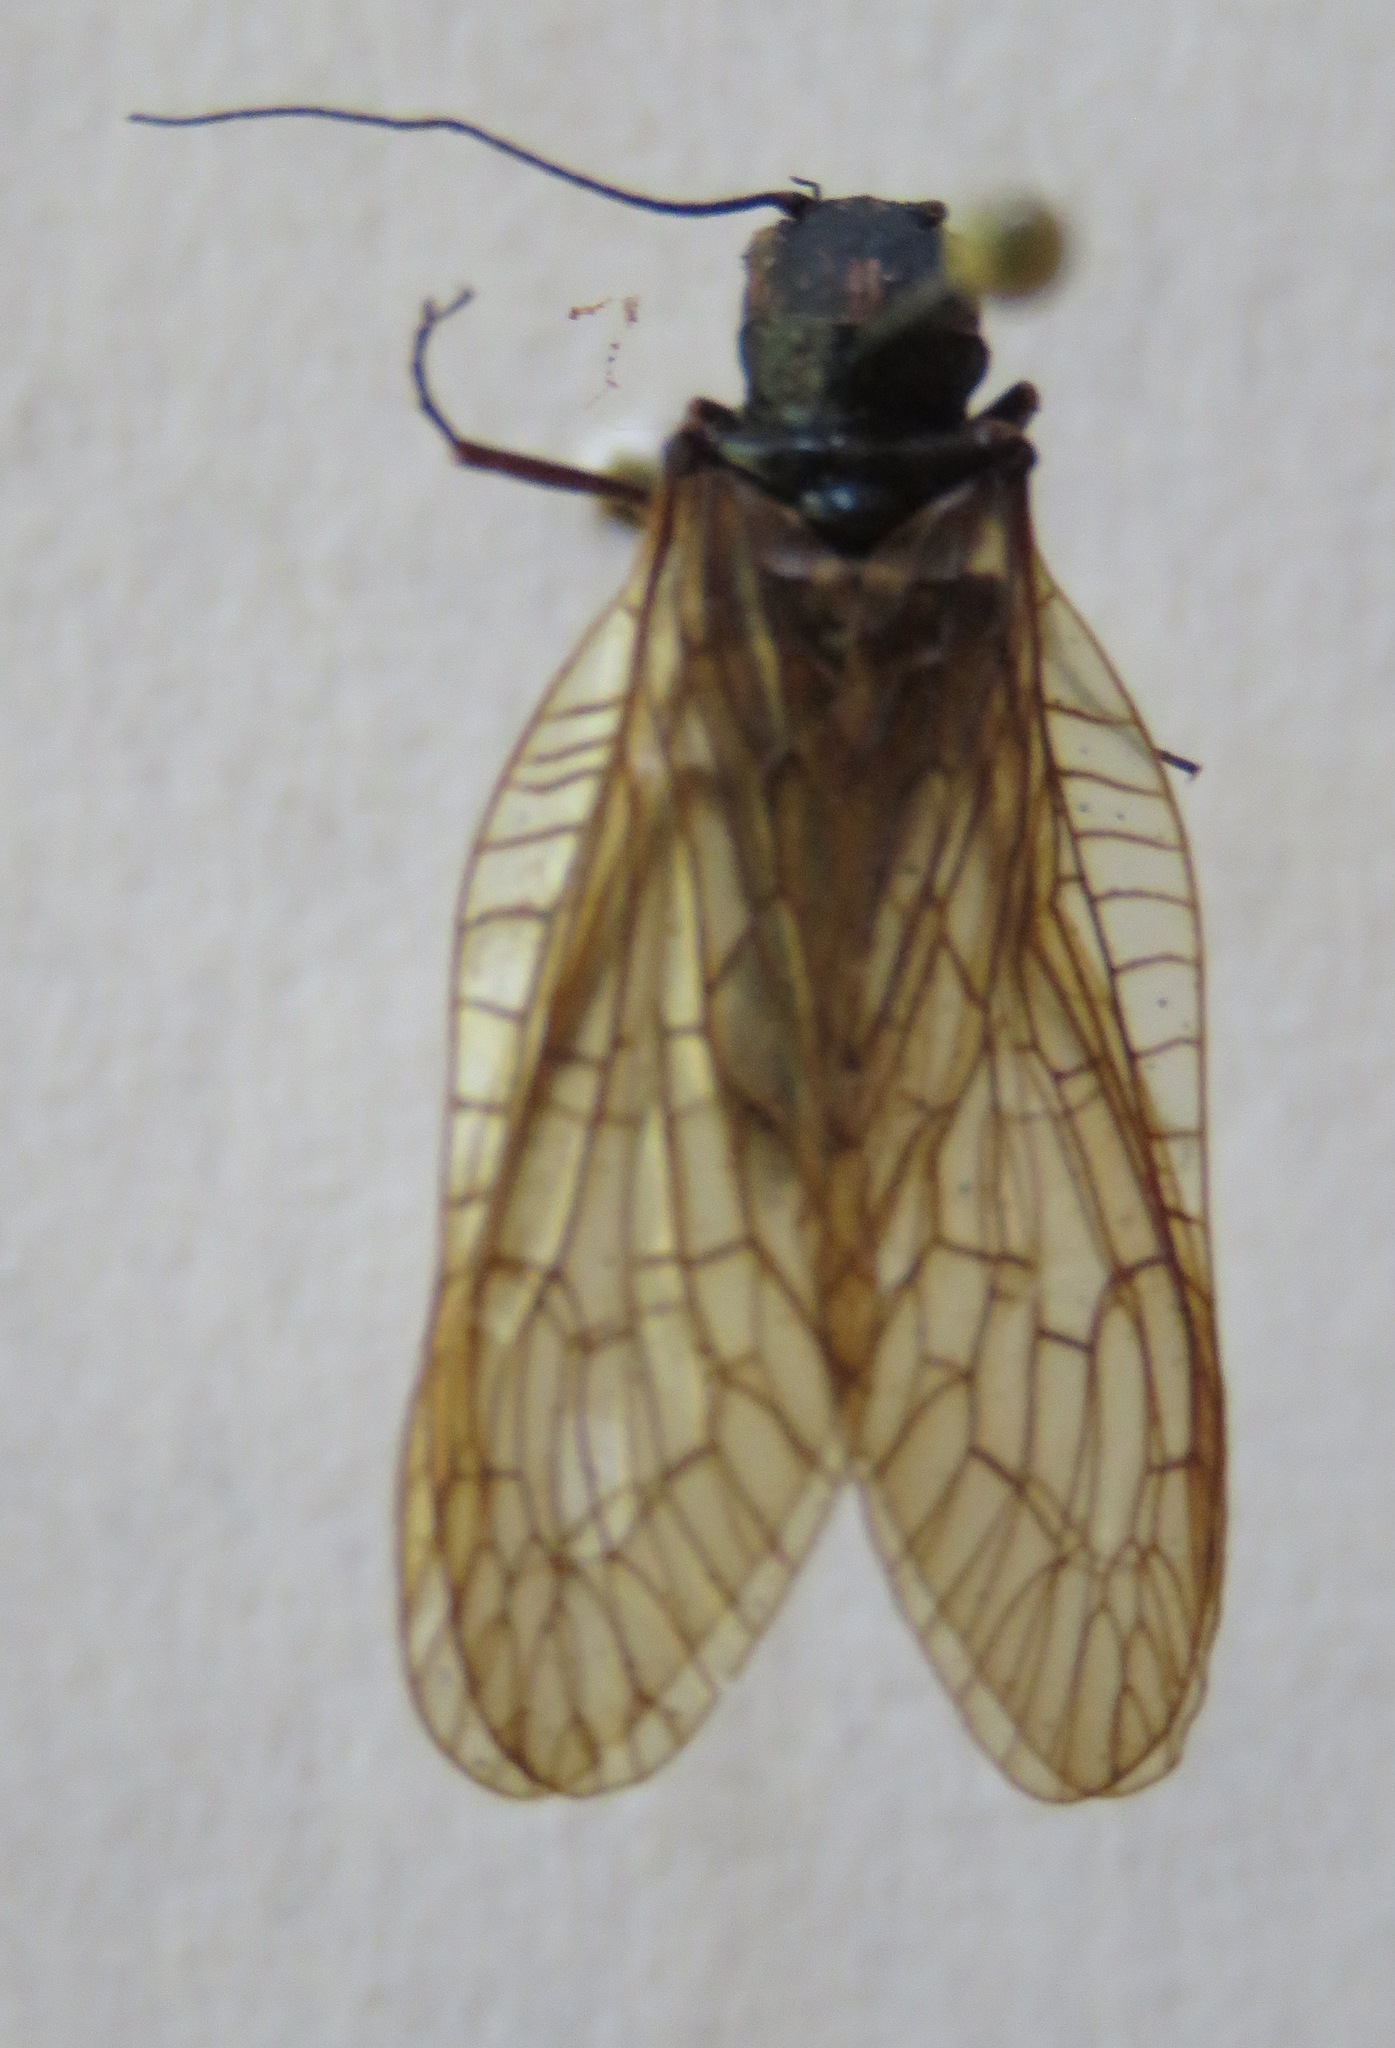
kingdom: Animalia
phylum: Arthropoda
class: Insecta
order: Megaloptera
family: Sialidae
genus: Sialis
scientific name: Sialis
